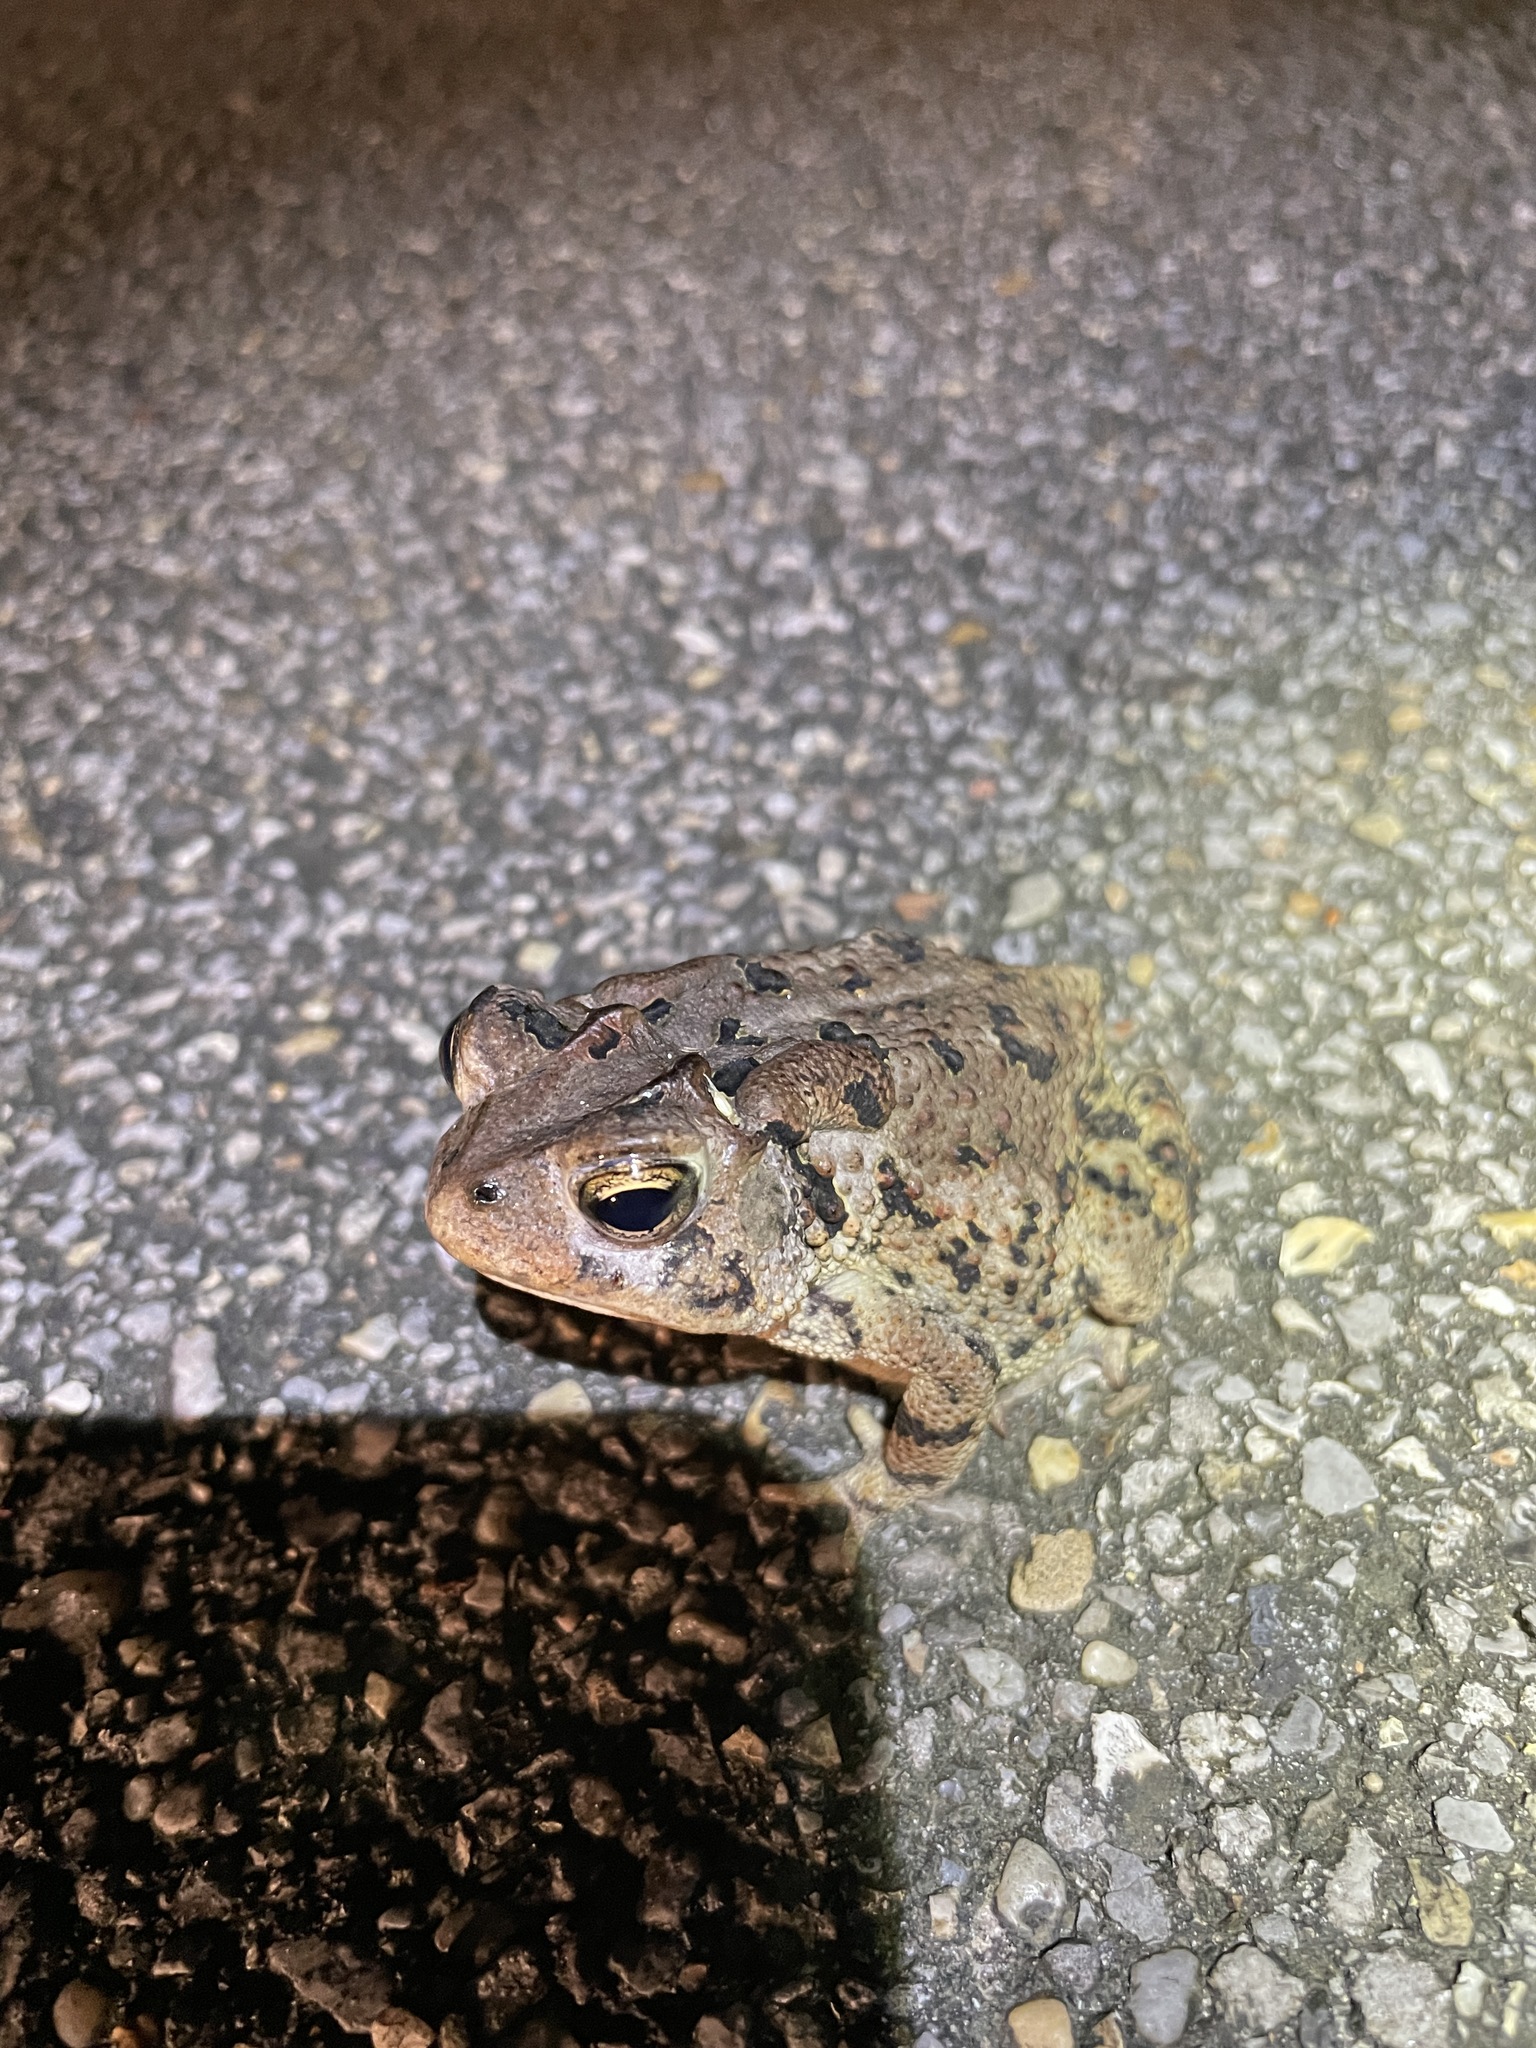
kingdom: Animalia
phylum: Chordata
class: Amphibia
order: Anura
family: Bufonidae
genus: Anaxyrus
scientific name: Anaxyrus terrestris
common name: Southern toad
